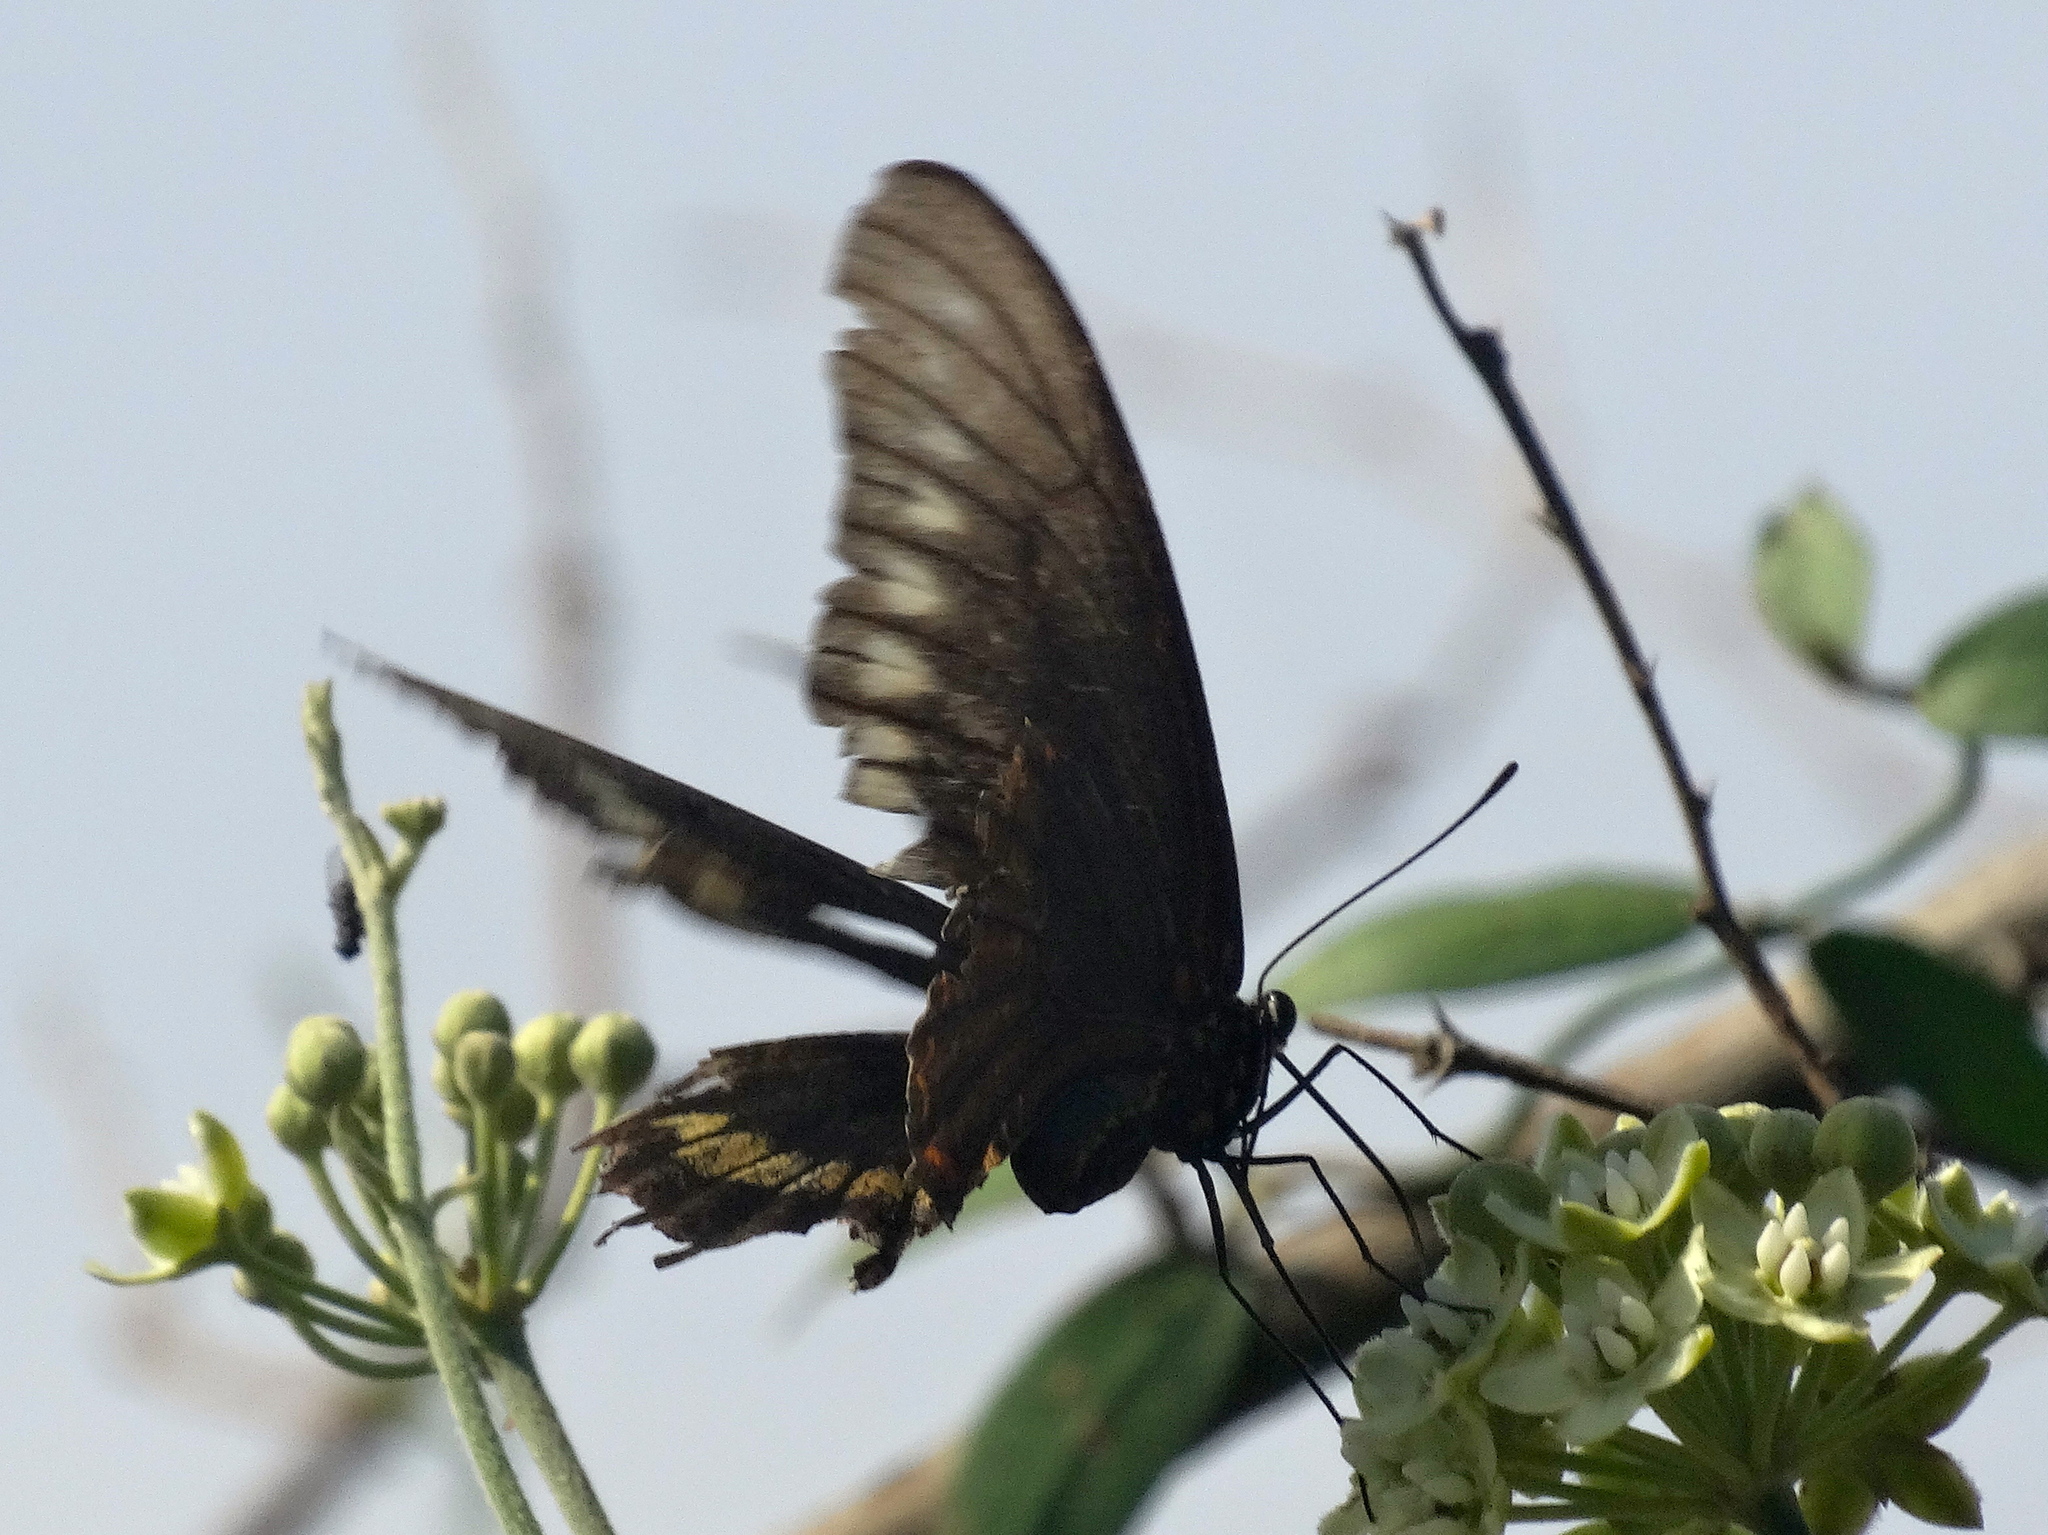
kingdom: Animalia
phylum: Arthropoda
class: Insecta
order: Lepidoptera
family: Papilionidae
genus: Battus
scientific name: Battus polydamas
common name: Polydamas swallowtail
